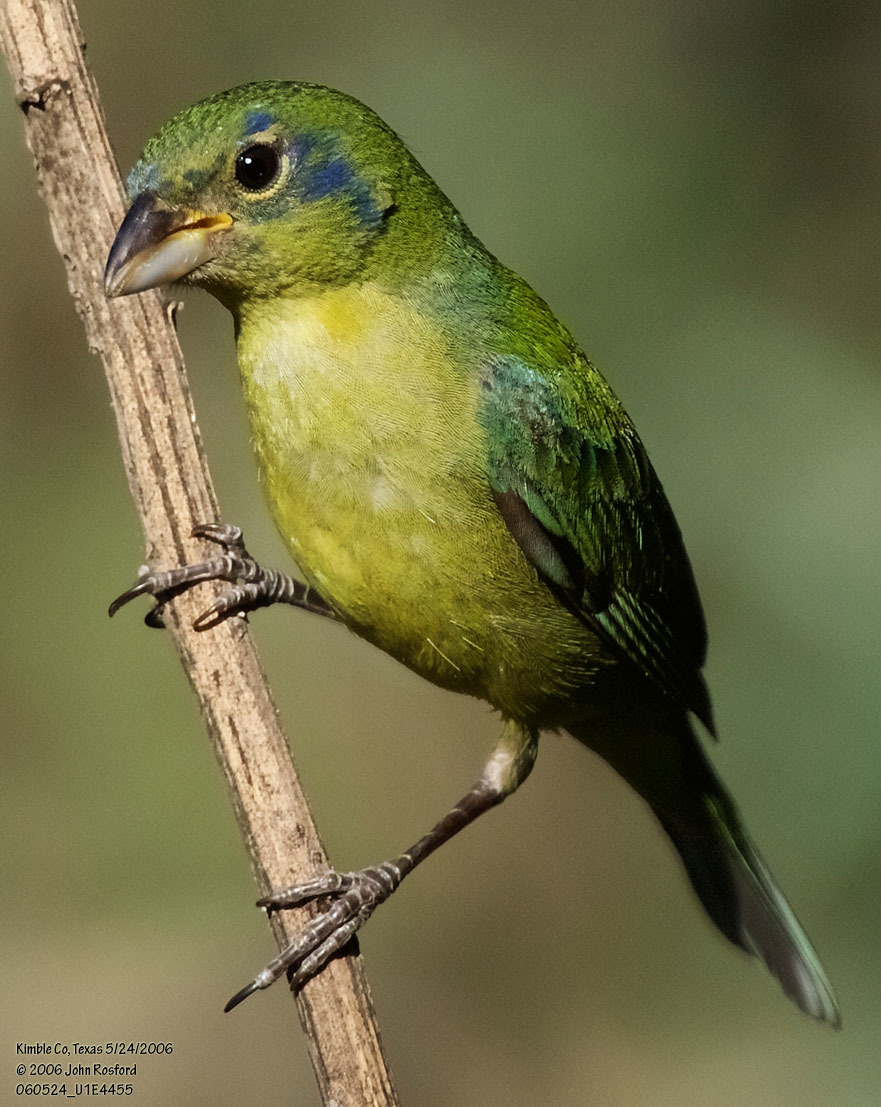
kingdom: Animalia
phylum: Chordata
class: Aves
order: Passeriformes
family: Cardinalidae
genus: Passerina
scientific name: Passerina ciris
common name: Painted bunting
